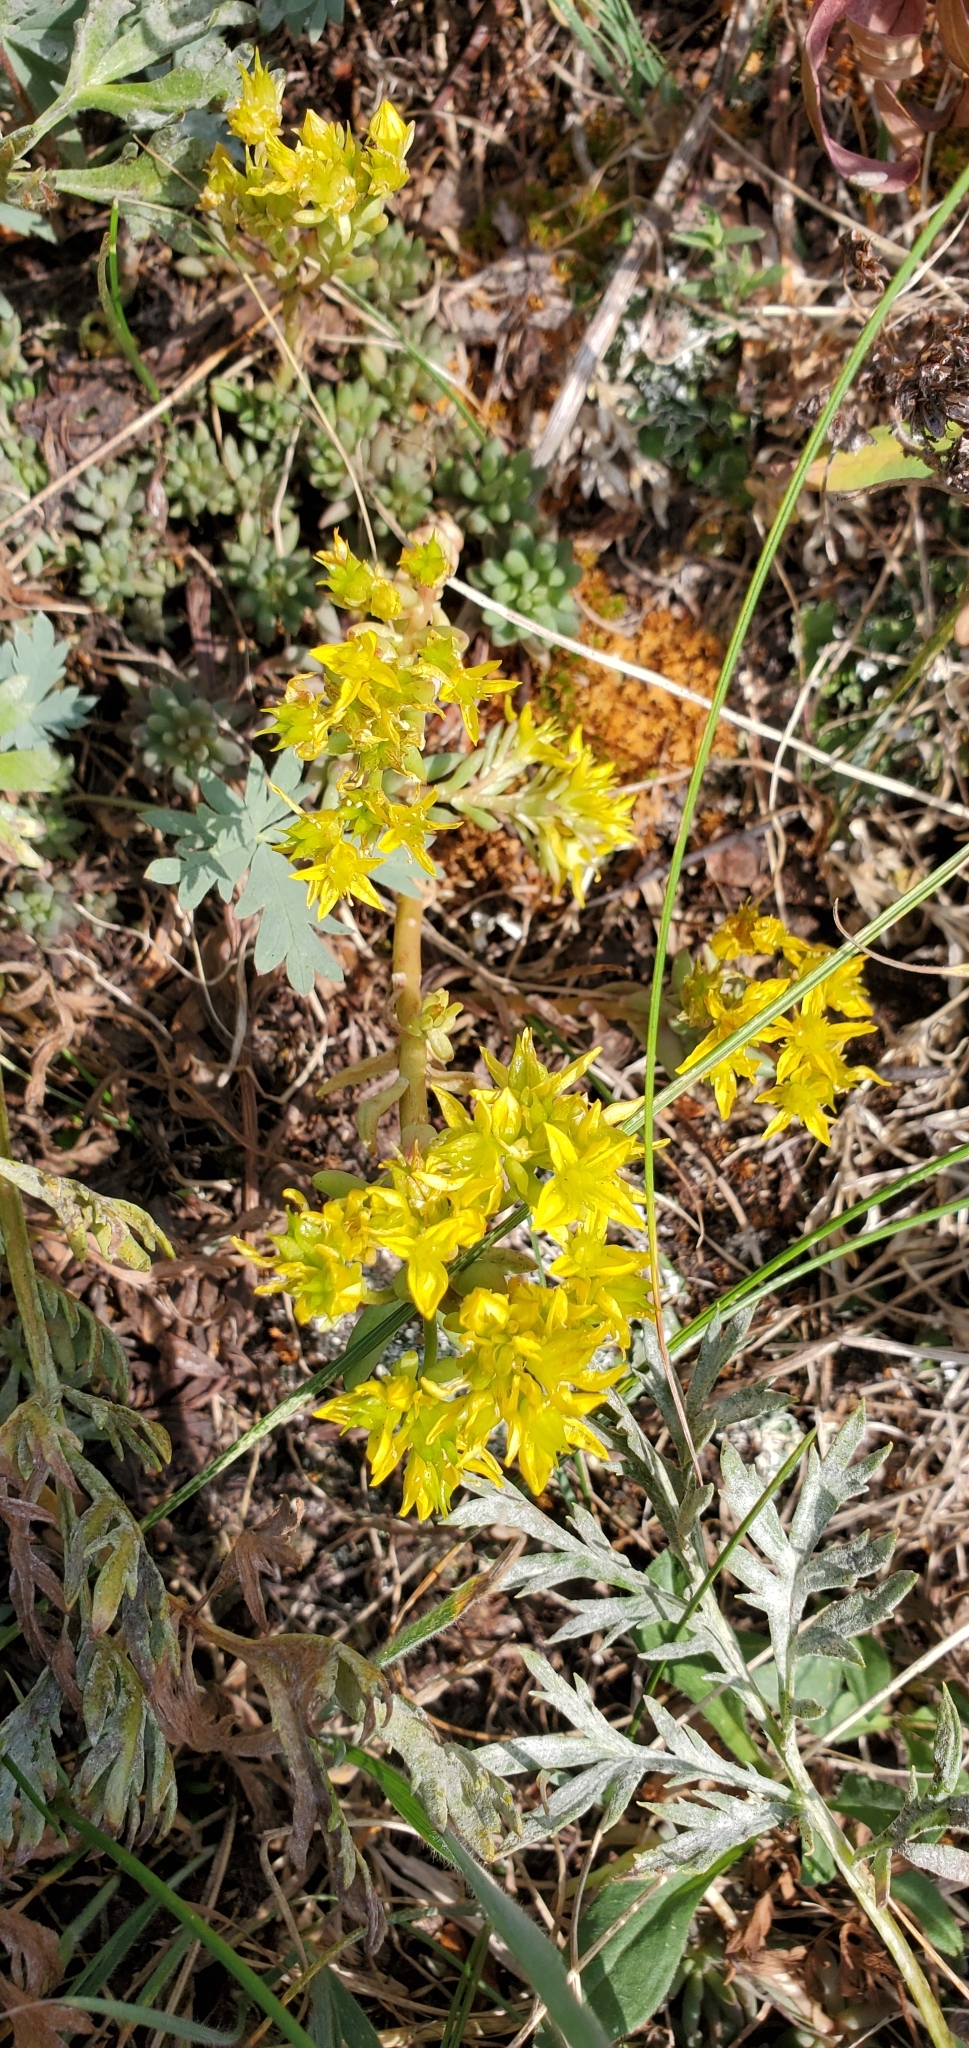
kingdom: Plantae
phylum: Tracheophyta
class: Magnoliopsida
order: Saxifragales
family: Crassulaceae
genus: Sedum
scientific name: Sedum lanceolatum
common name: Common stonecrop
